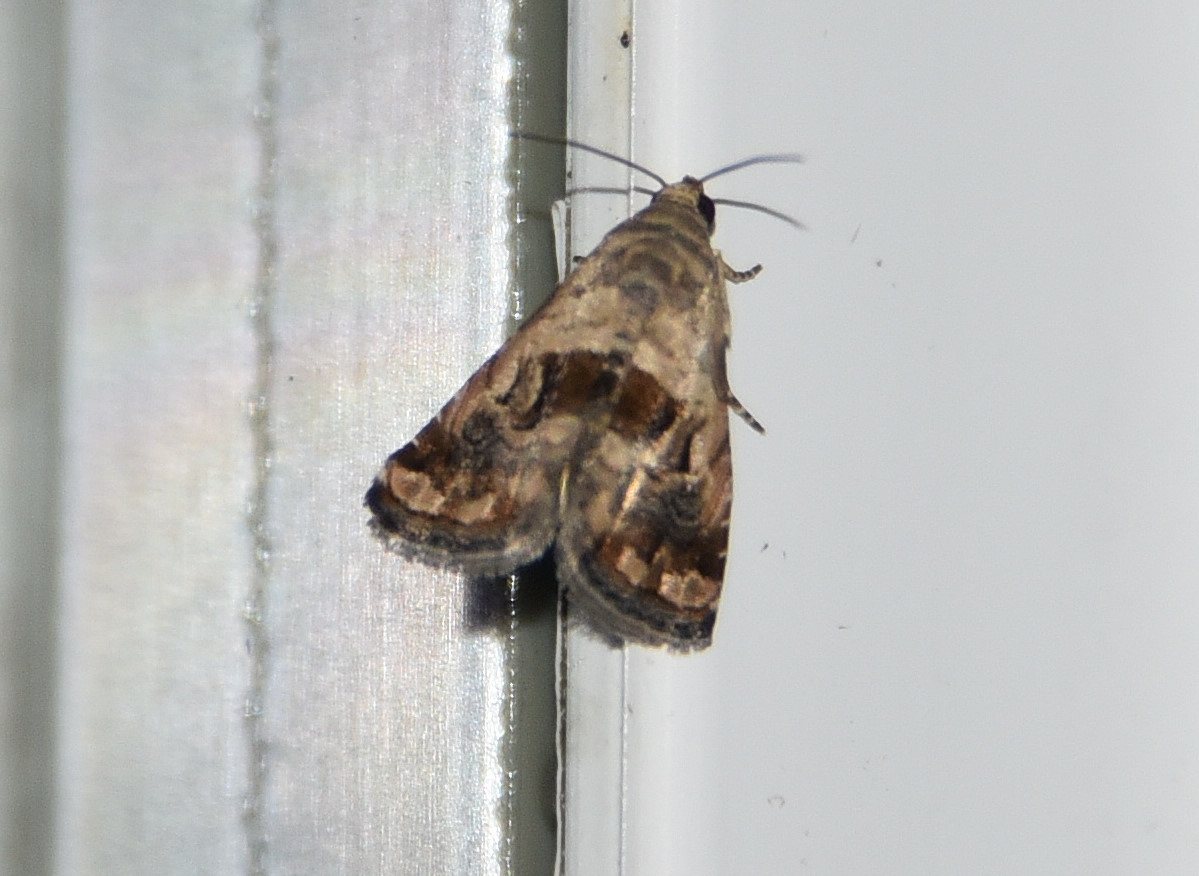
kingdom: Animalia
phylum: Arthropoda
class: Insecta
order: Lepidoptera
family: Noctuidae
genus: Tripudia
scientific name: Tripudia quadrifera
